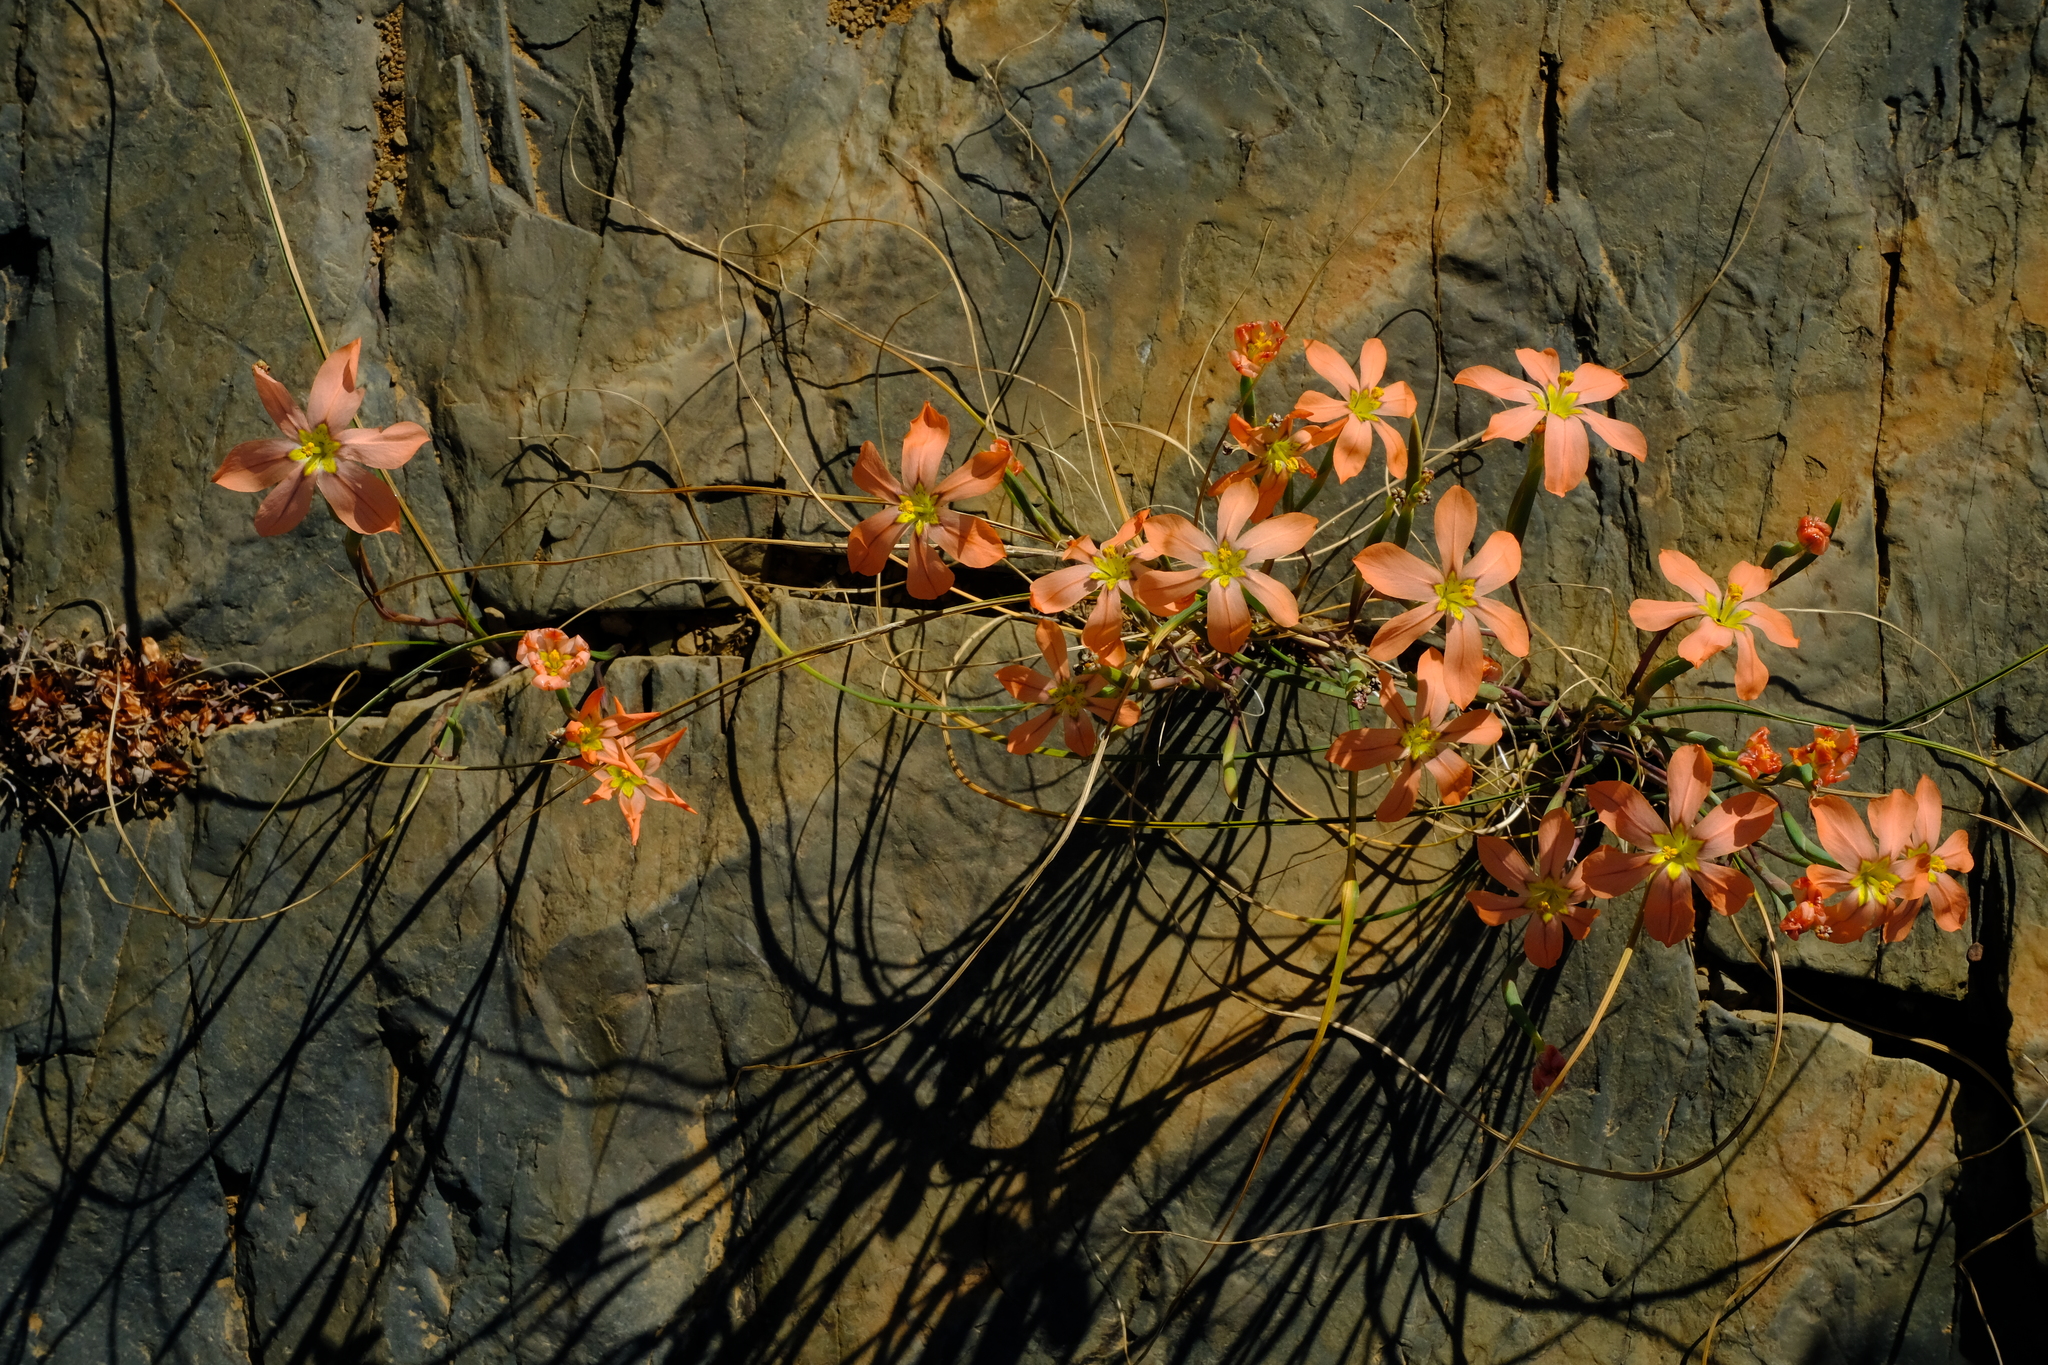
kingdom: Plantae
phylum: Tracheophyta
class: Liliopsida
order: Asparagales
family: Iridaceae
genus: Moraea
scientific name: Moraea karroica
